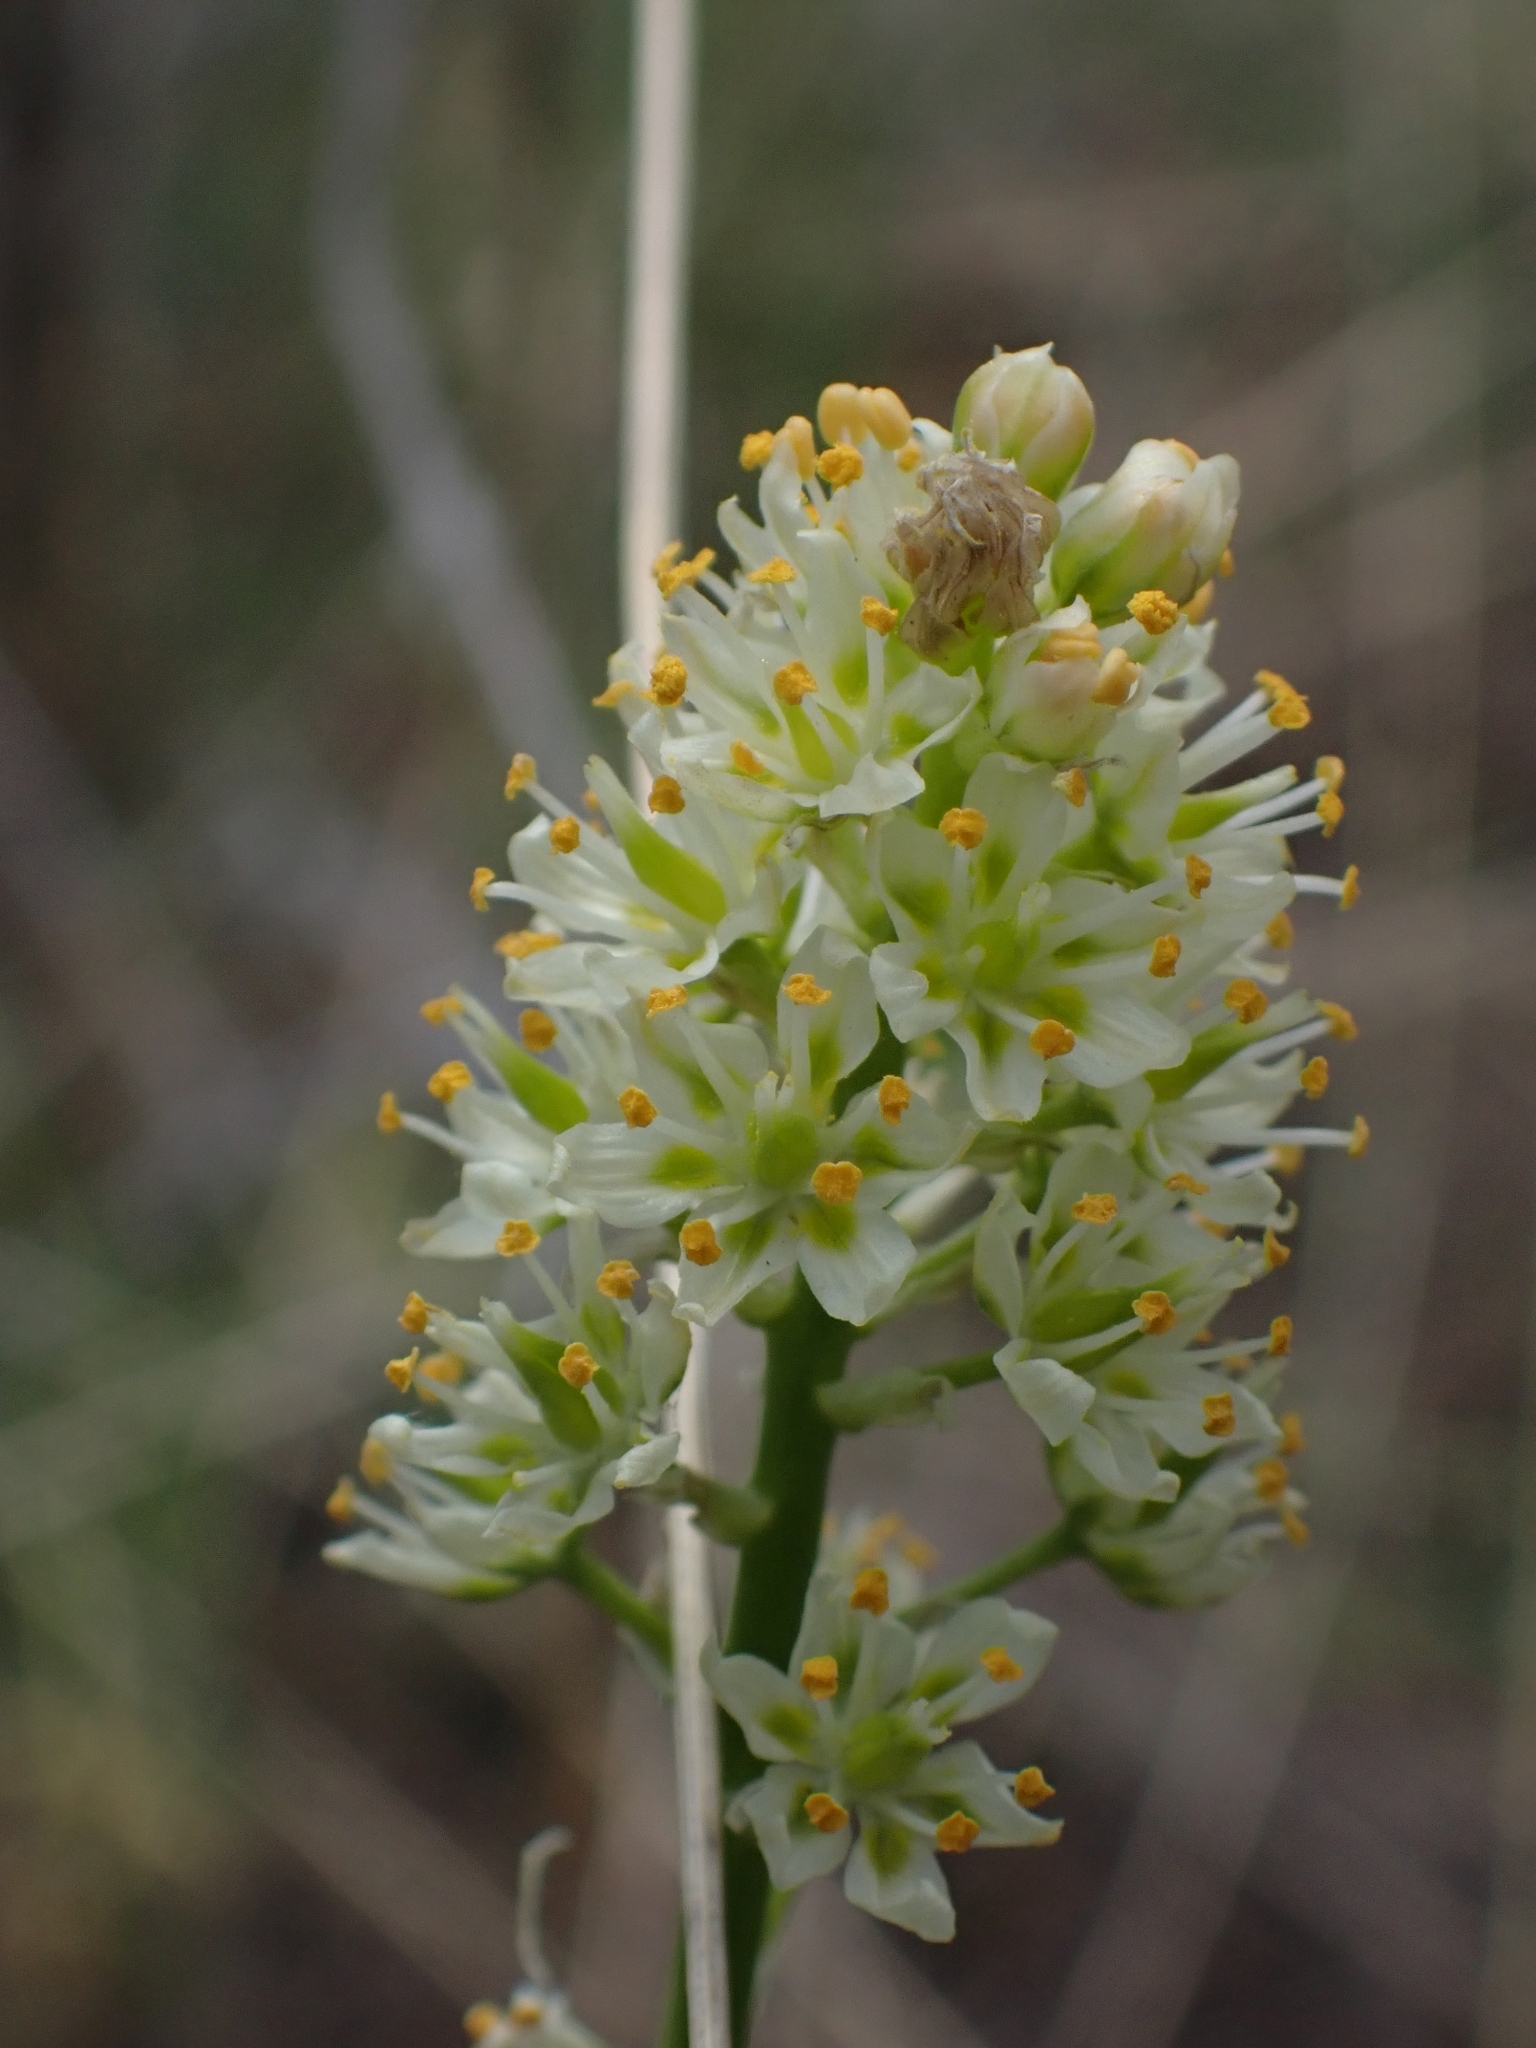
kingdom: Plantae
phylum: Tracheophyta
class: Liliopsida
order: Liliales
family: Melanthiaceae
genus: Toxicoscordion
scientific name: Toxicoscordion venenosum
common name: Meadow death camas
